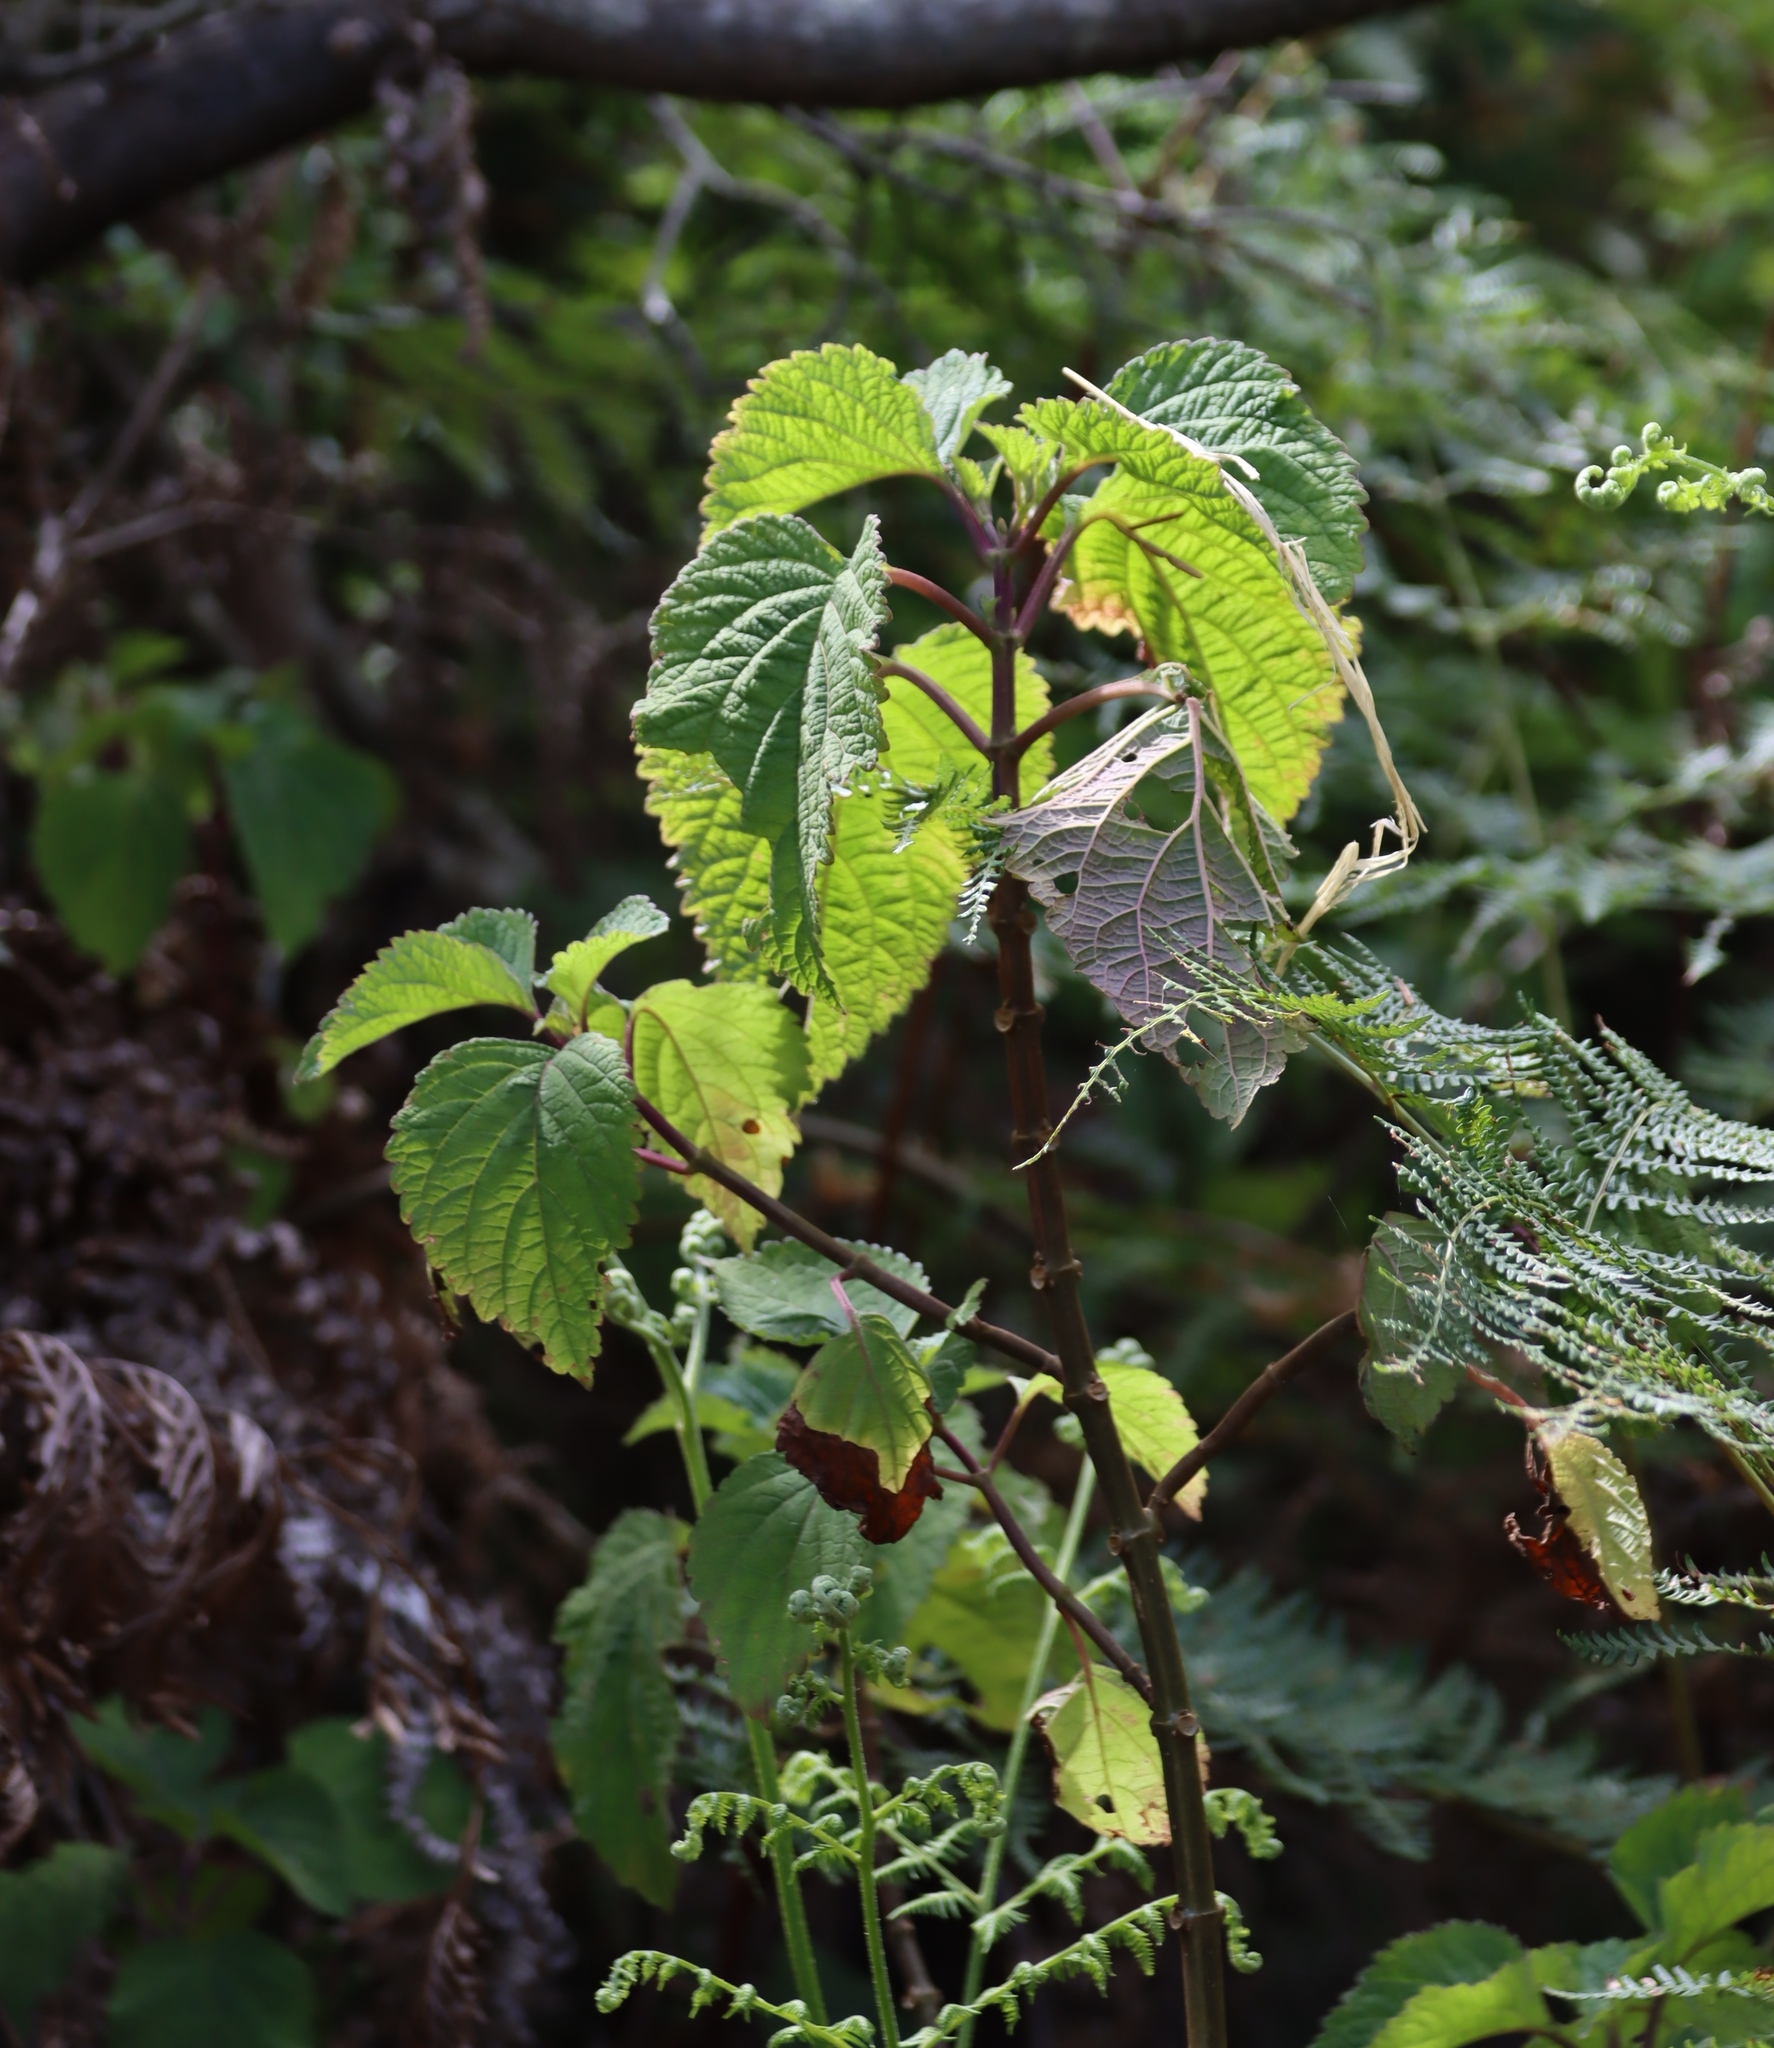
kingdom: Plantae
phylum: Tracheophyta
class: Magnoliopsida
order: Lamiales
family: Lamiaceae
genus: Plectranthus
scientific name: Plectranthus fruticosus
